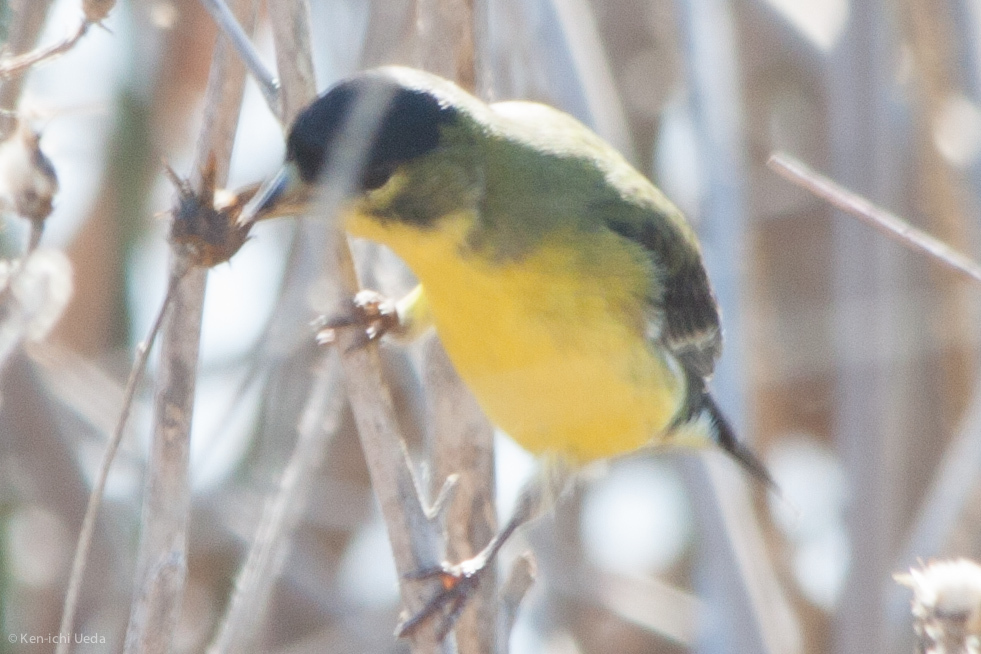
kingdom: Animalia
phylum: Chordata
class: Aves
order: Passeriformes
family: Fringillidae
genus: Spinus
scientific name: Spinus psaltria
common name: Lesser goldfinch
